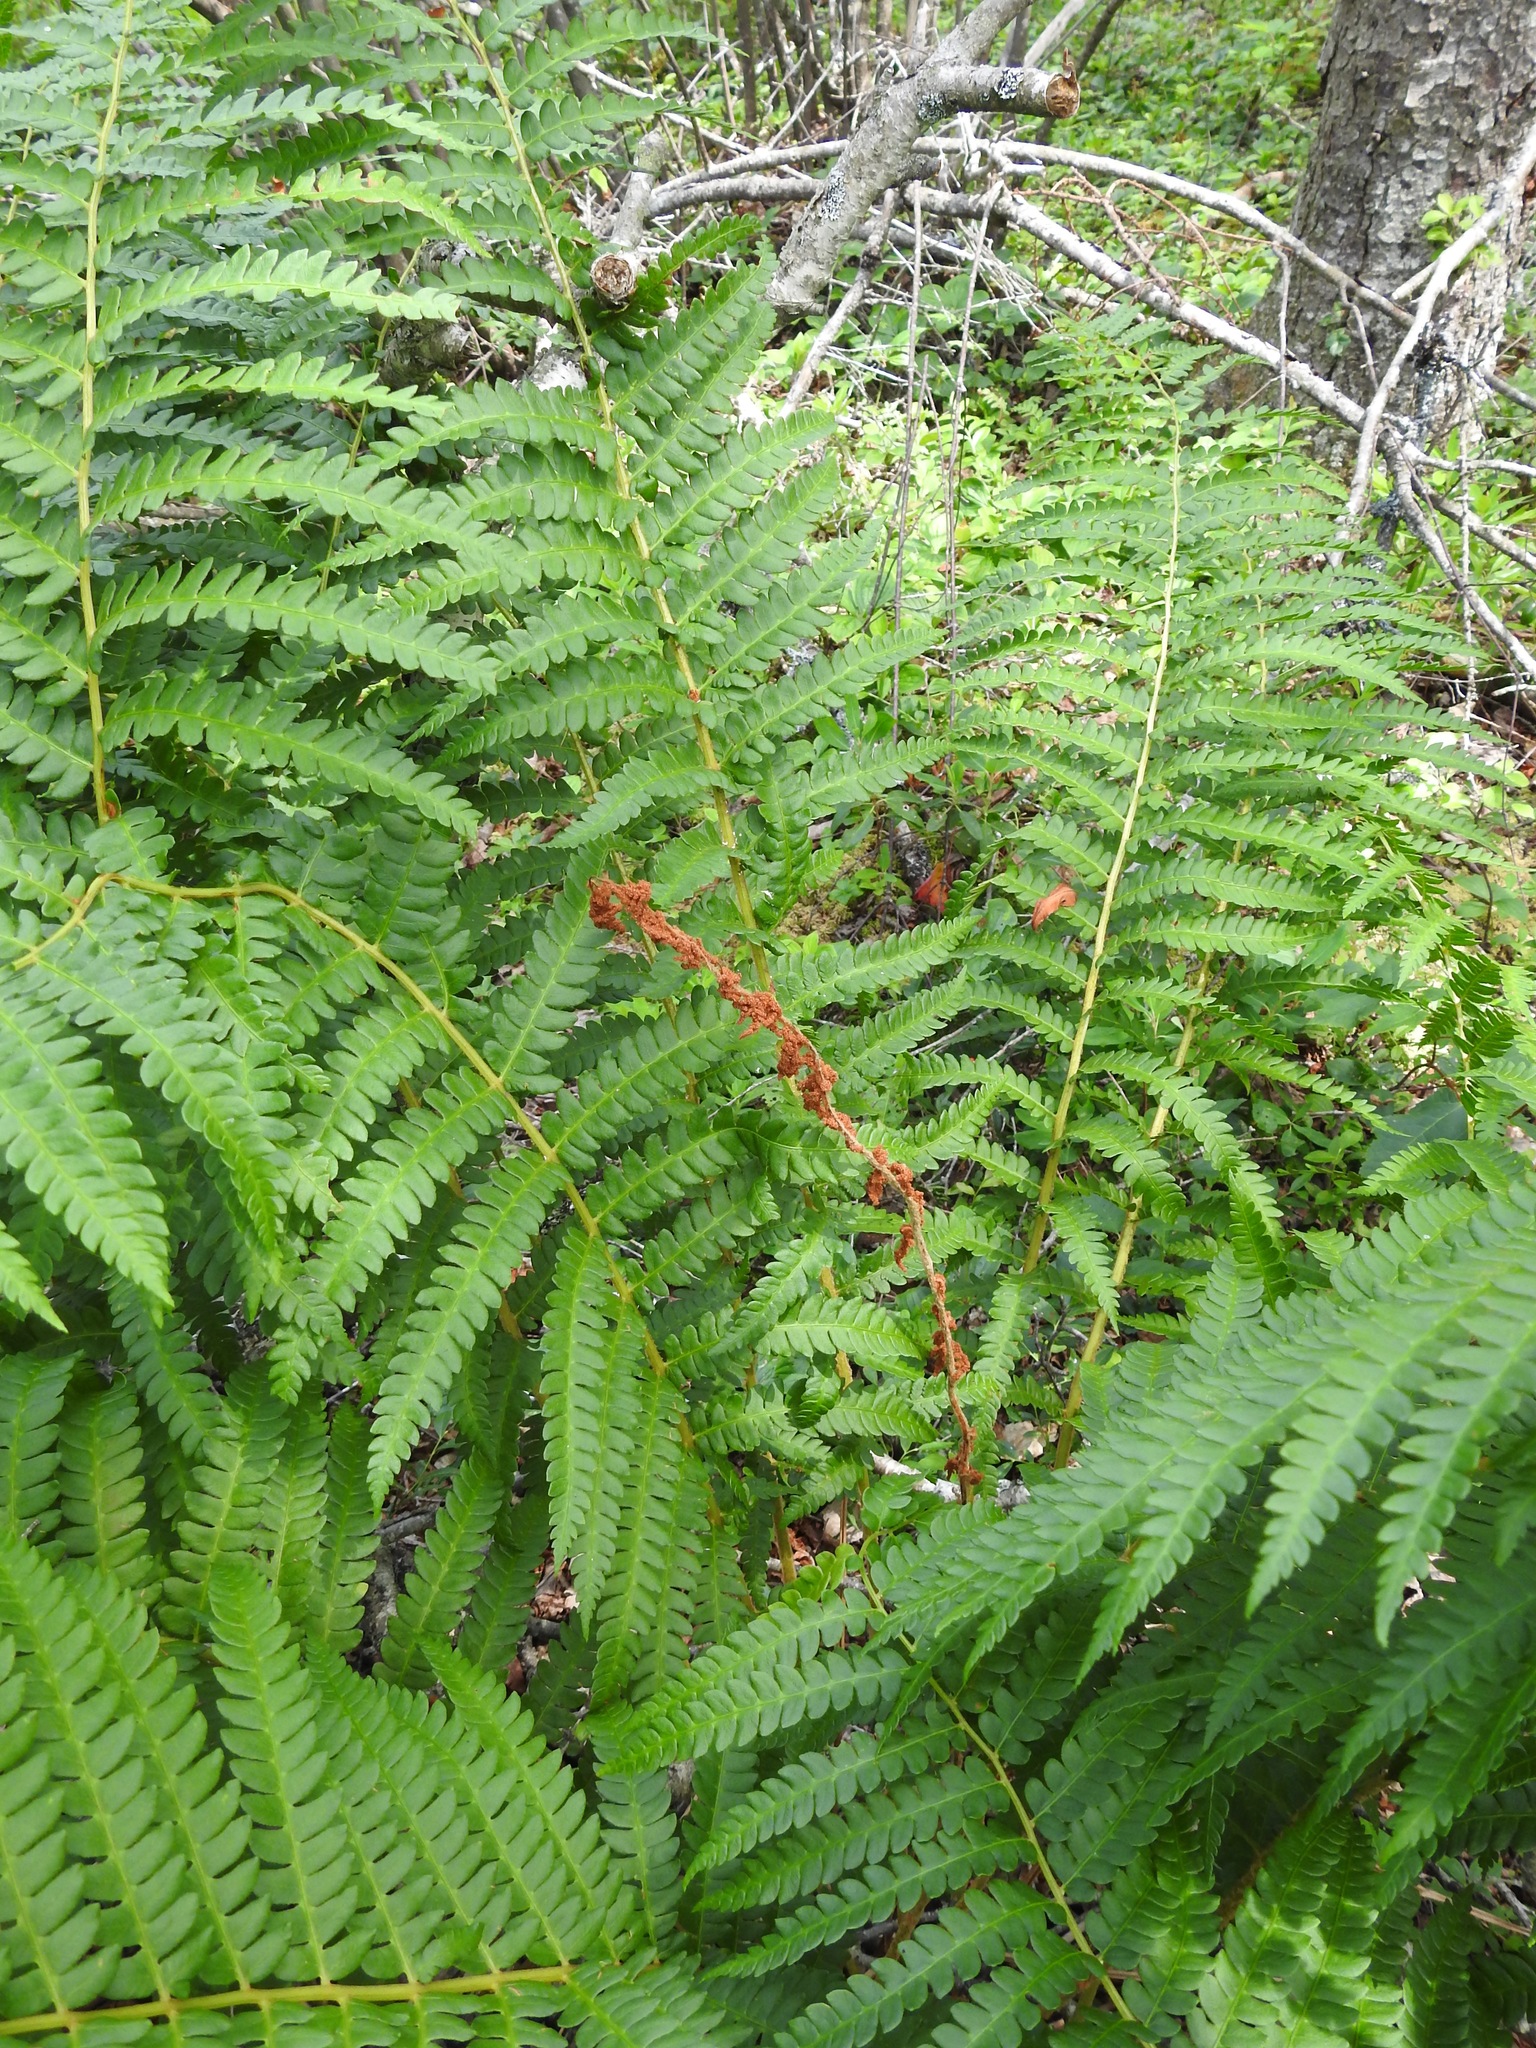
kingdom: Plantae
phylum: Tracheophyta
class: Polypodiopsida
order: Osmundales
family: Osmundaceae
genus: Osmundastrum
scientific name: Osmundastrum cinnamomeum
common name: Cinnamon fern
